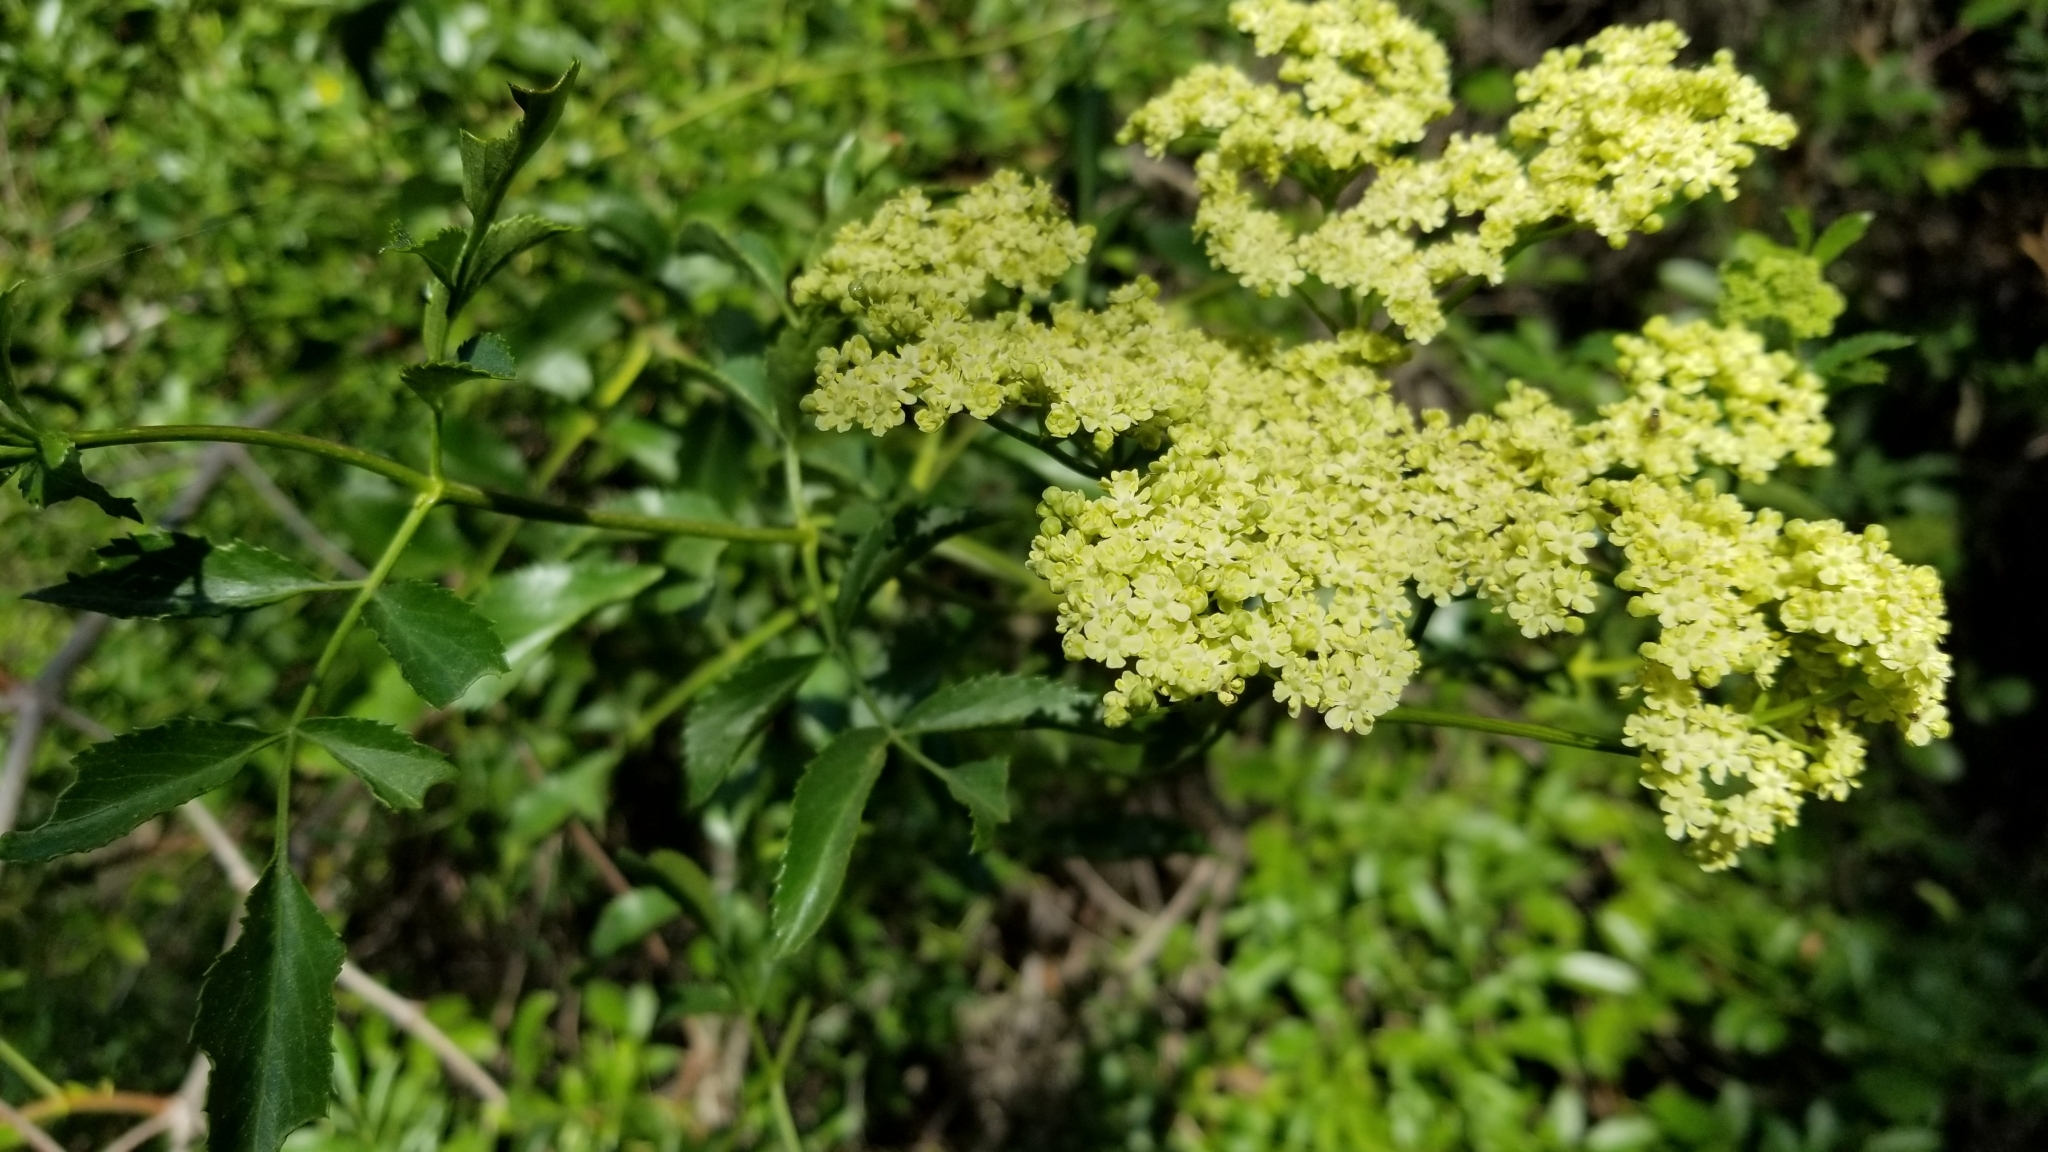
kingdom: Plantae
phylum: Tracheophyta
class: Magnoliopsida
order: Dipsacales
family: Viburnaceae
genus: Sambucus
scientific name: Sambucus cerulea
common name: Blue elder
